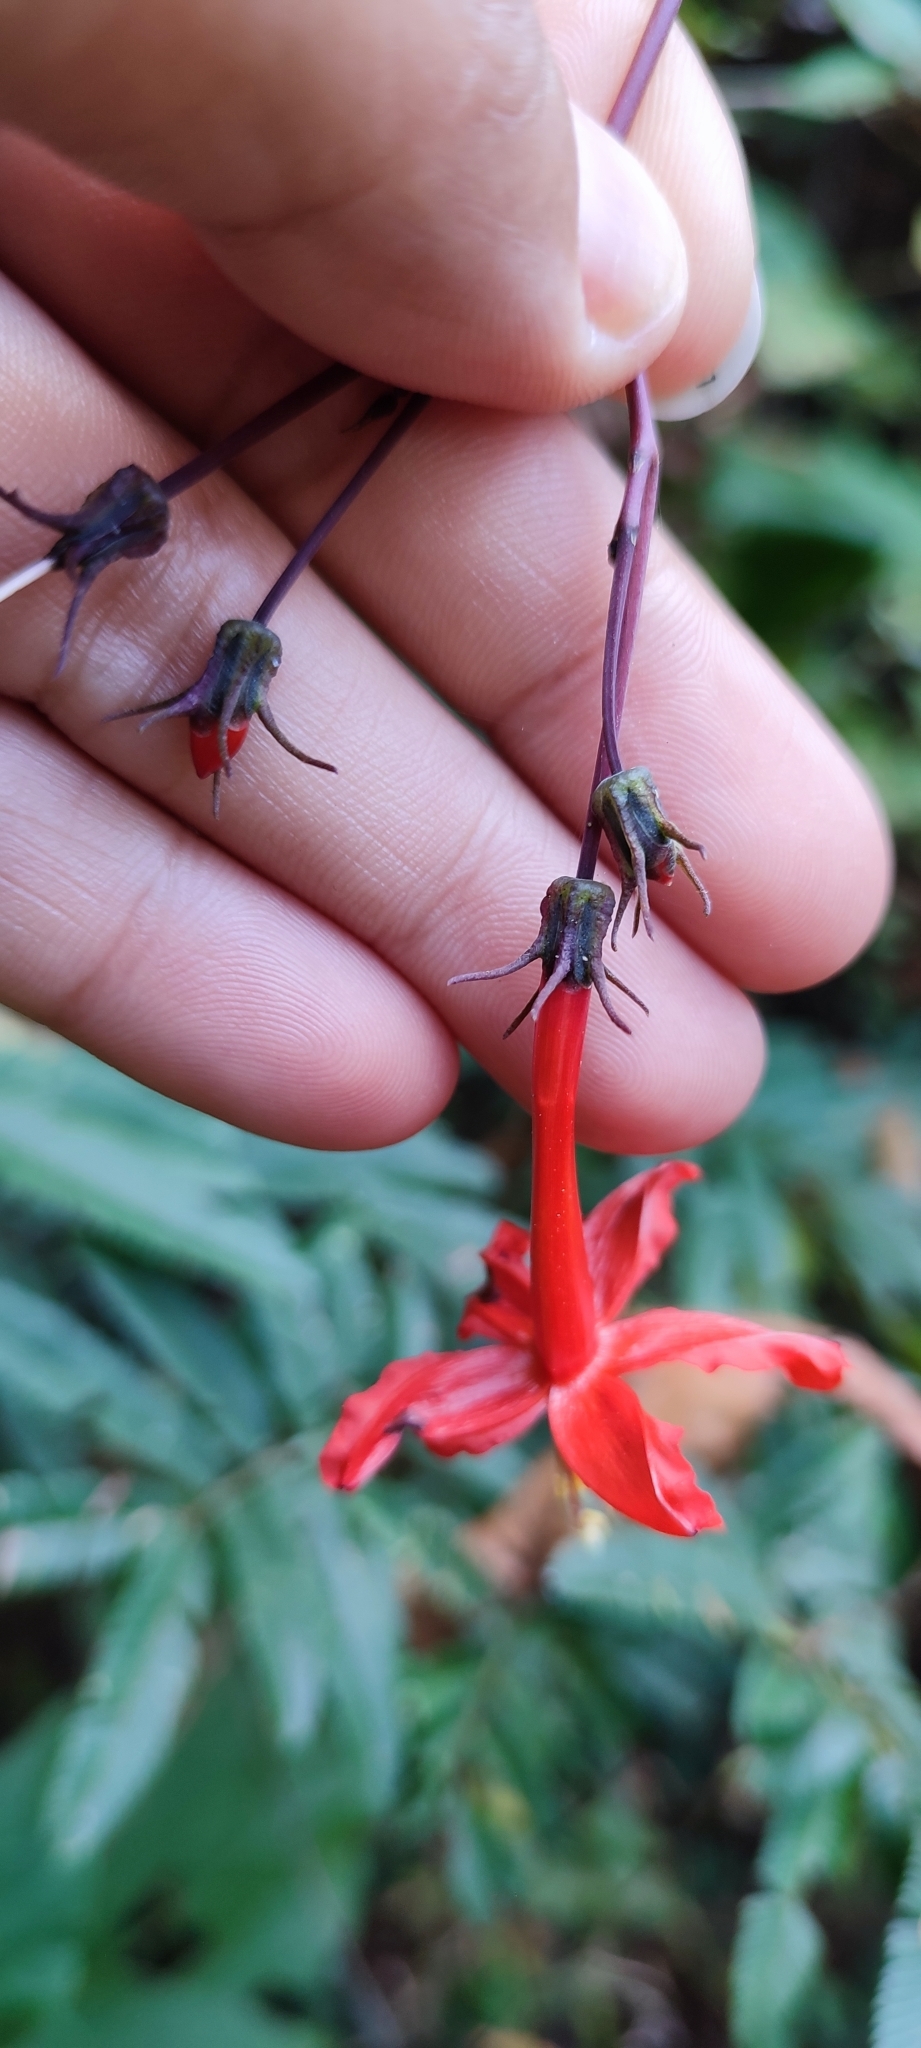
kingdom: Plantae
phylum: Tracheophyta
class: Magnoliopsida
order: Solanales
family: Convolvulaceae
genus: Ipomoea
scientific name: Ipomoea spectata
